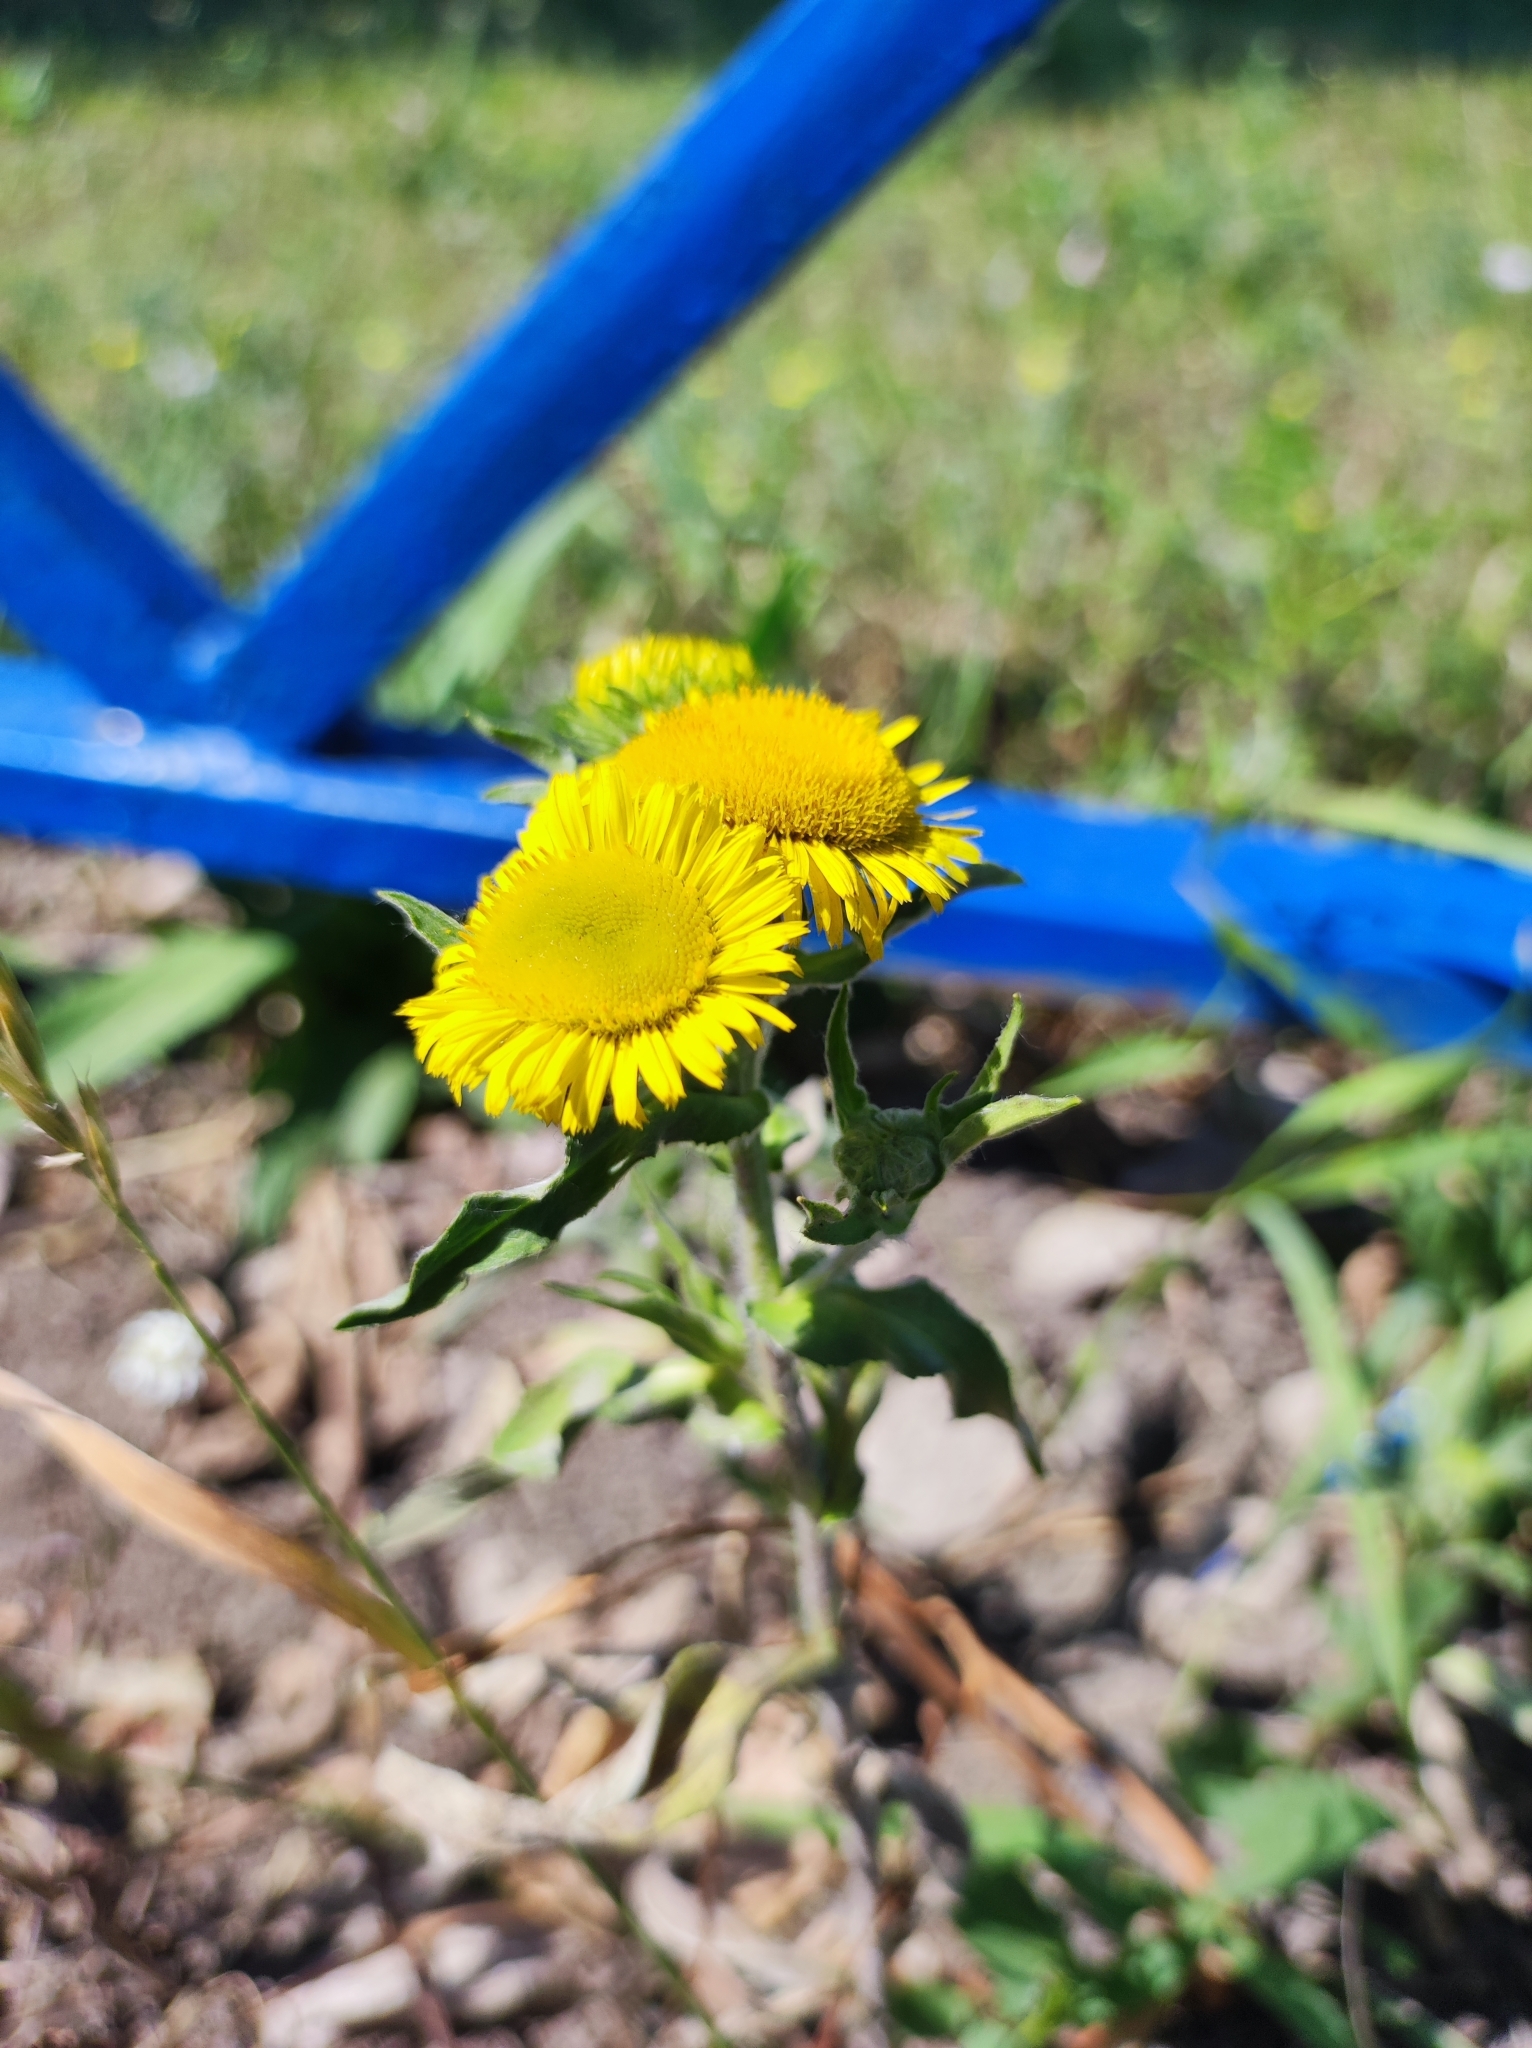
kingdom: Plantae
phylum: Tracheophyta
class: Magnoliopsida
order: Asterales
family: Asteraceae
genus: Pentanema
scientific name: Pentanema britannicum
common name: British elecampane
